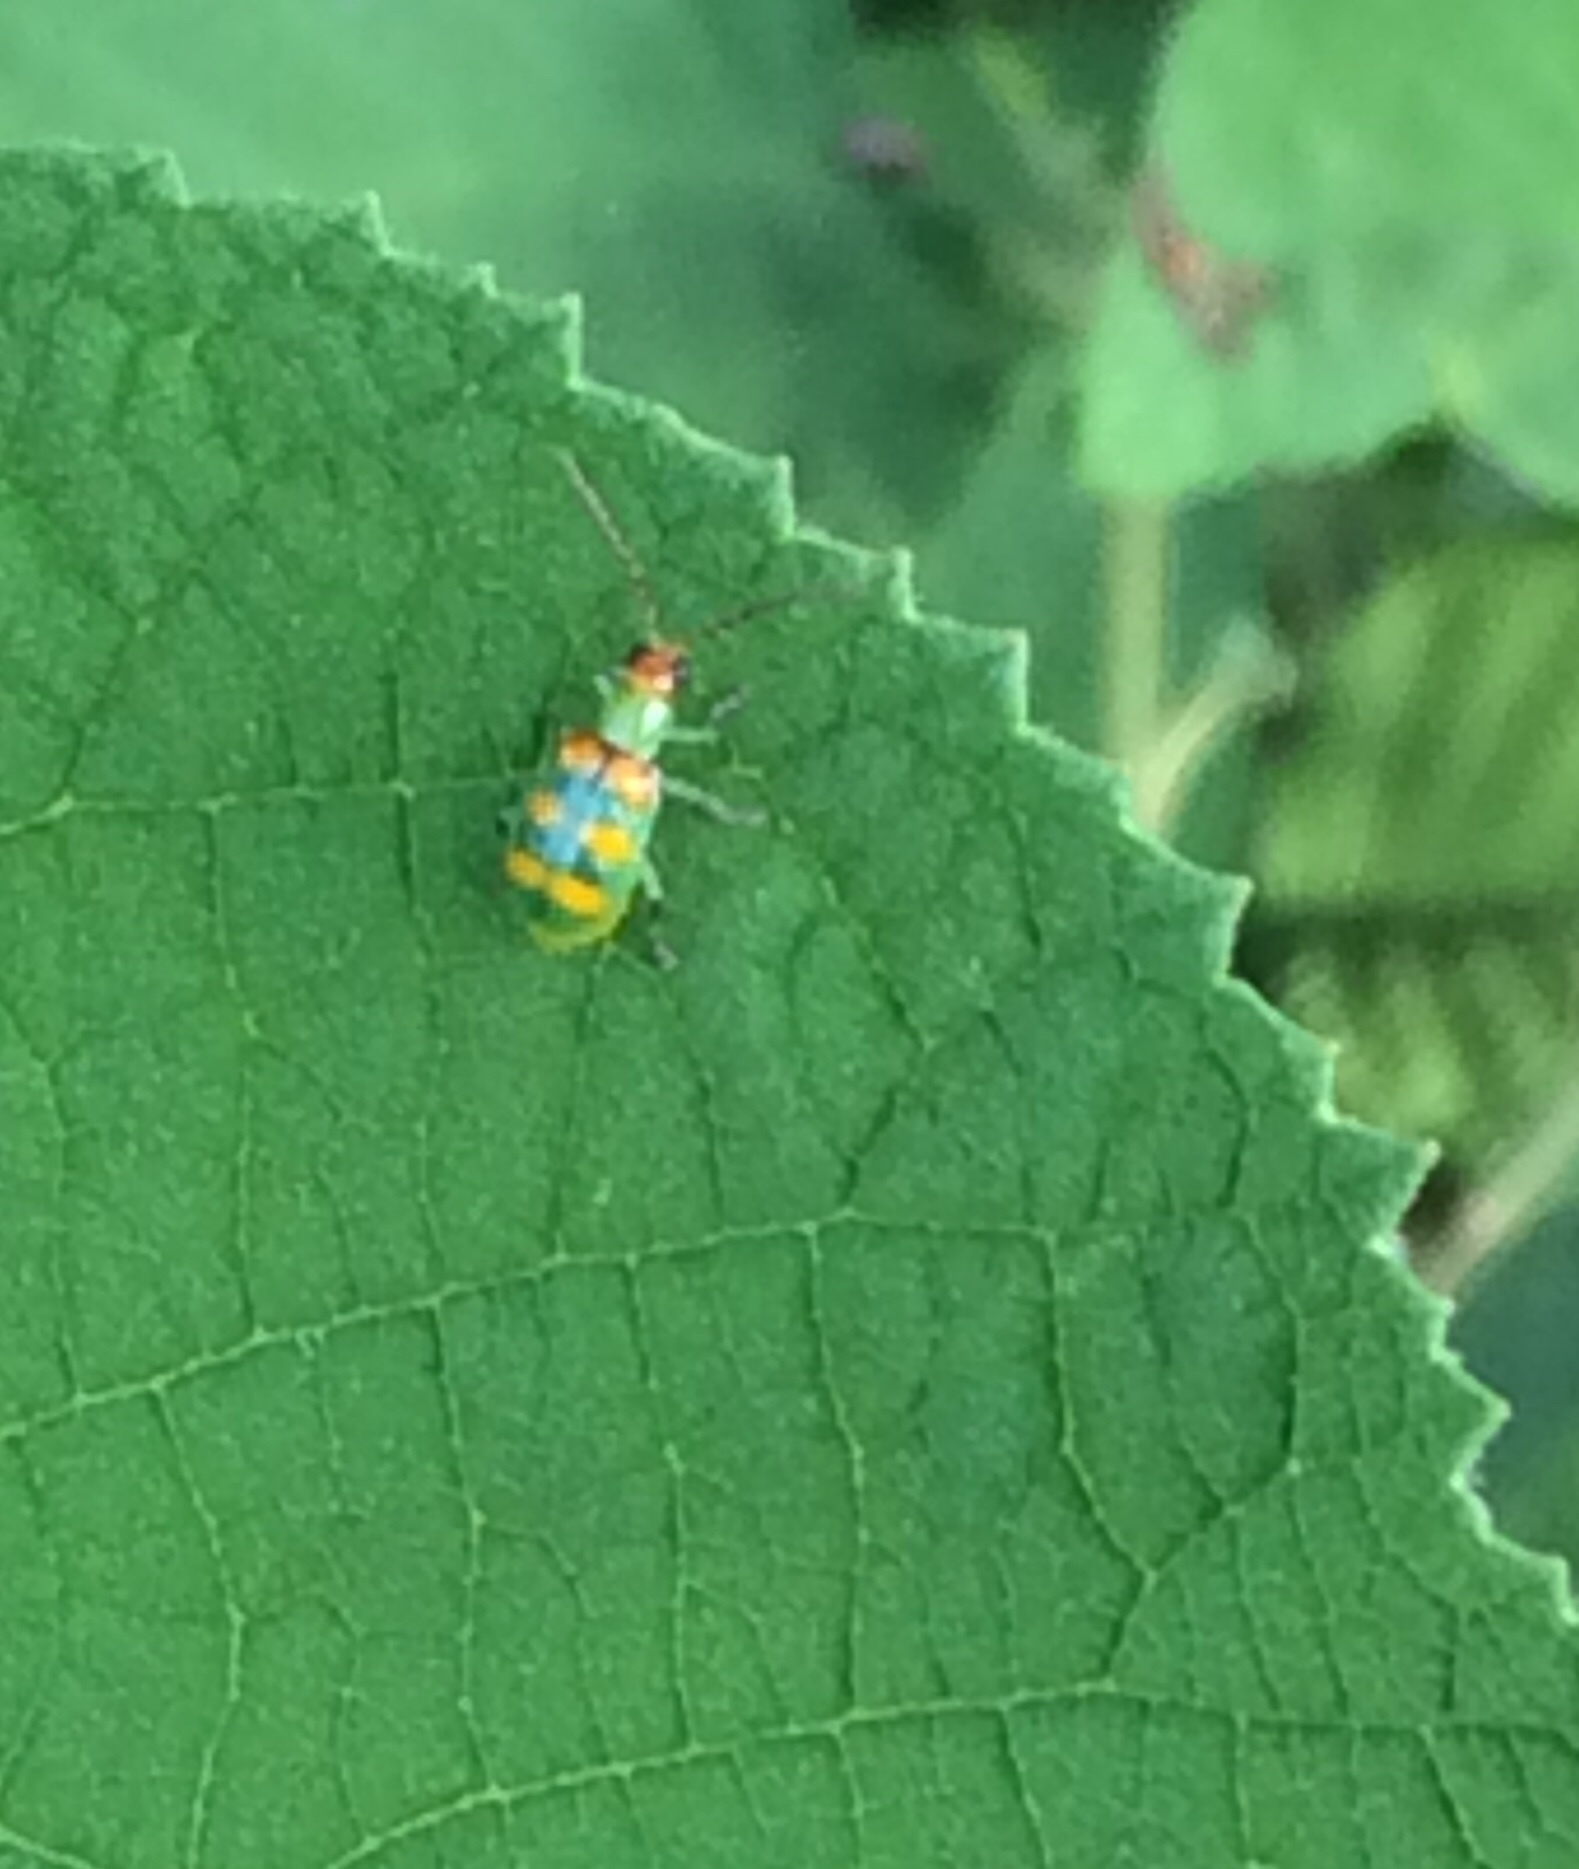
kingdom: Animalia
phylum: Arthropoda
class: Insecta
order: Coleoptera
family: Chrysomelidae
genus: Diabrotica
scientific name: Diabrotica speciosa
